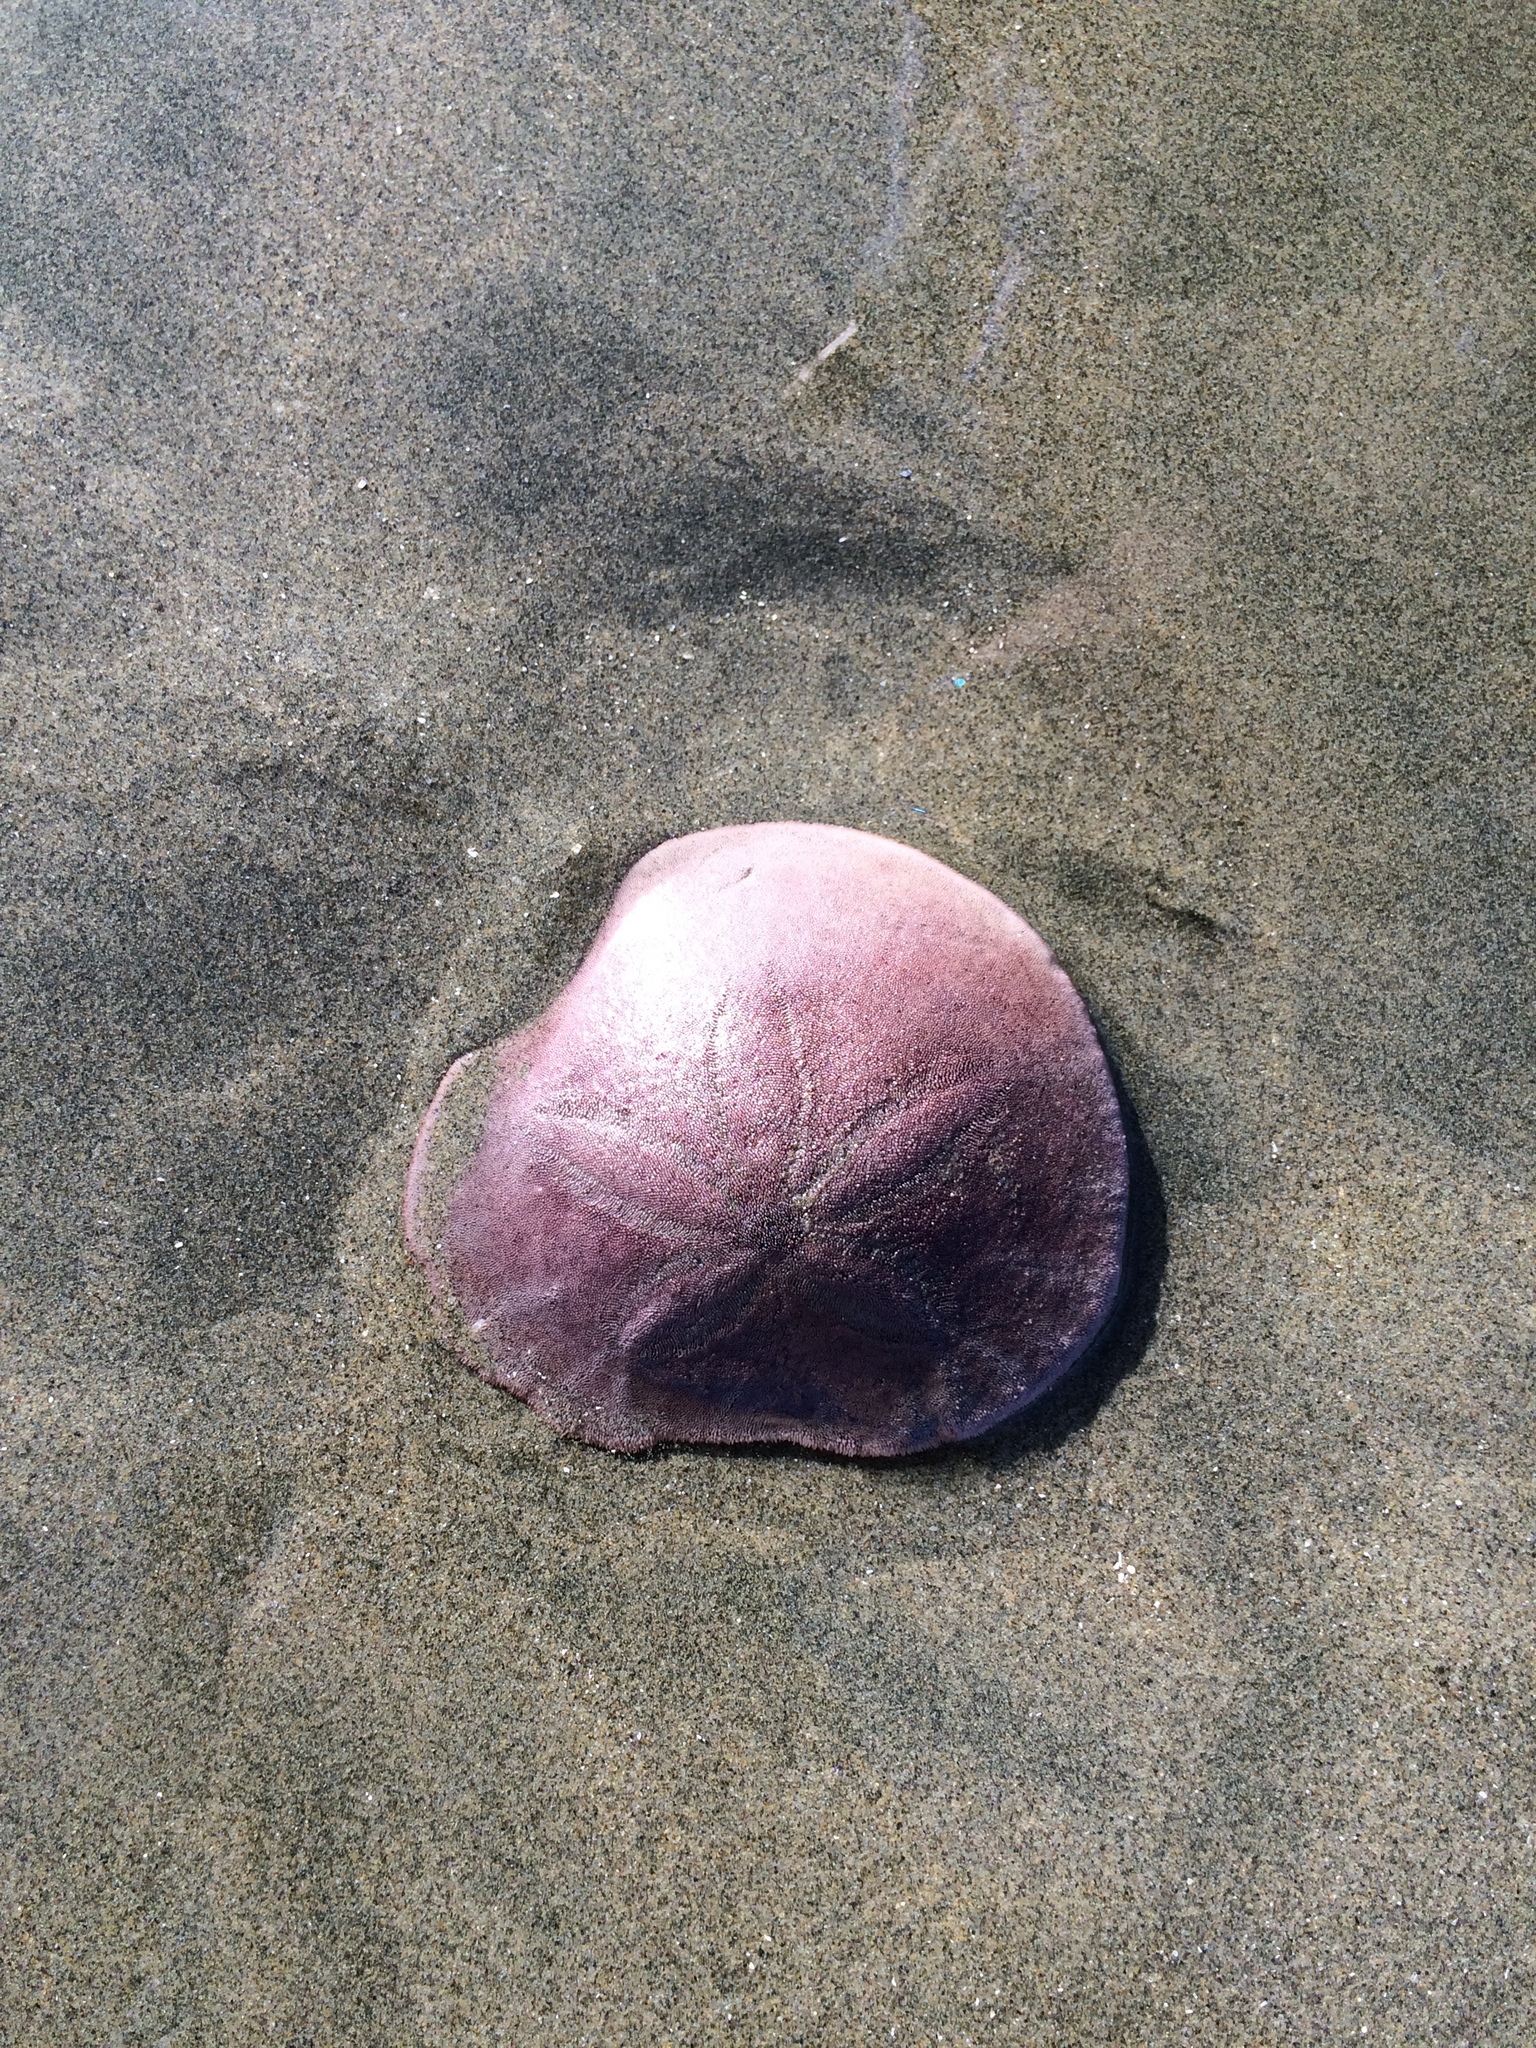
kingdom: Animalia
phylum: Echinodermata
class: Echinoidea
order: Echinolampadacea
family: Dendrasteridae
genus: Dendraster
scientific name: Dendraster excentricus
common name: Eccentric sand dollar sea urchin
